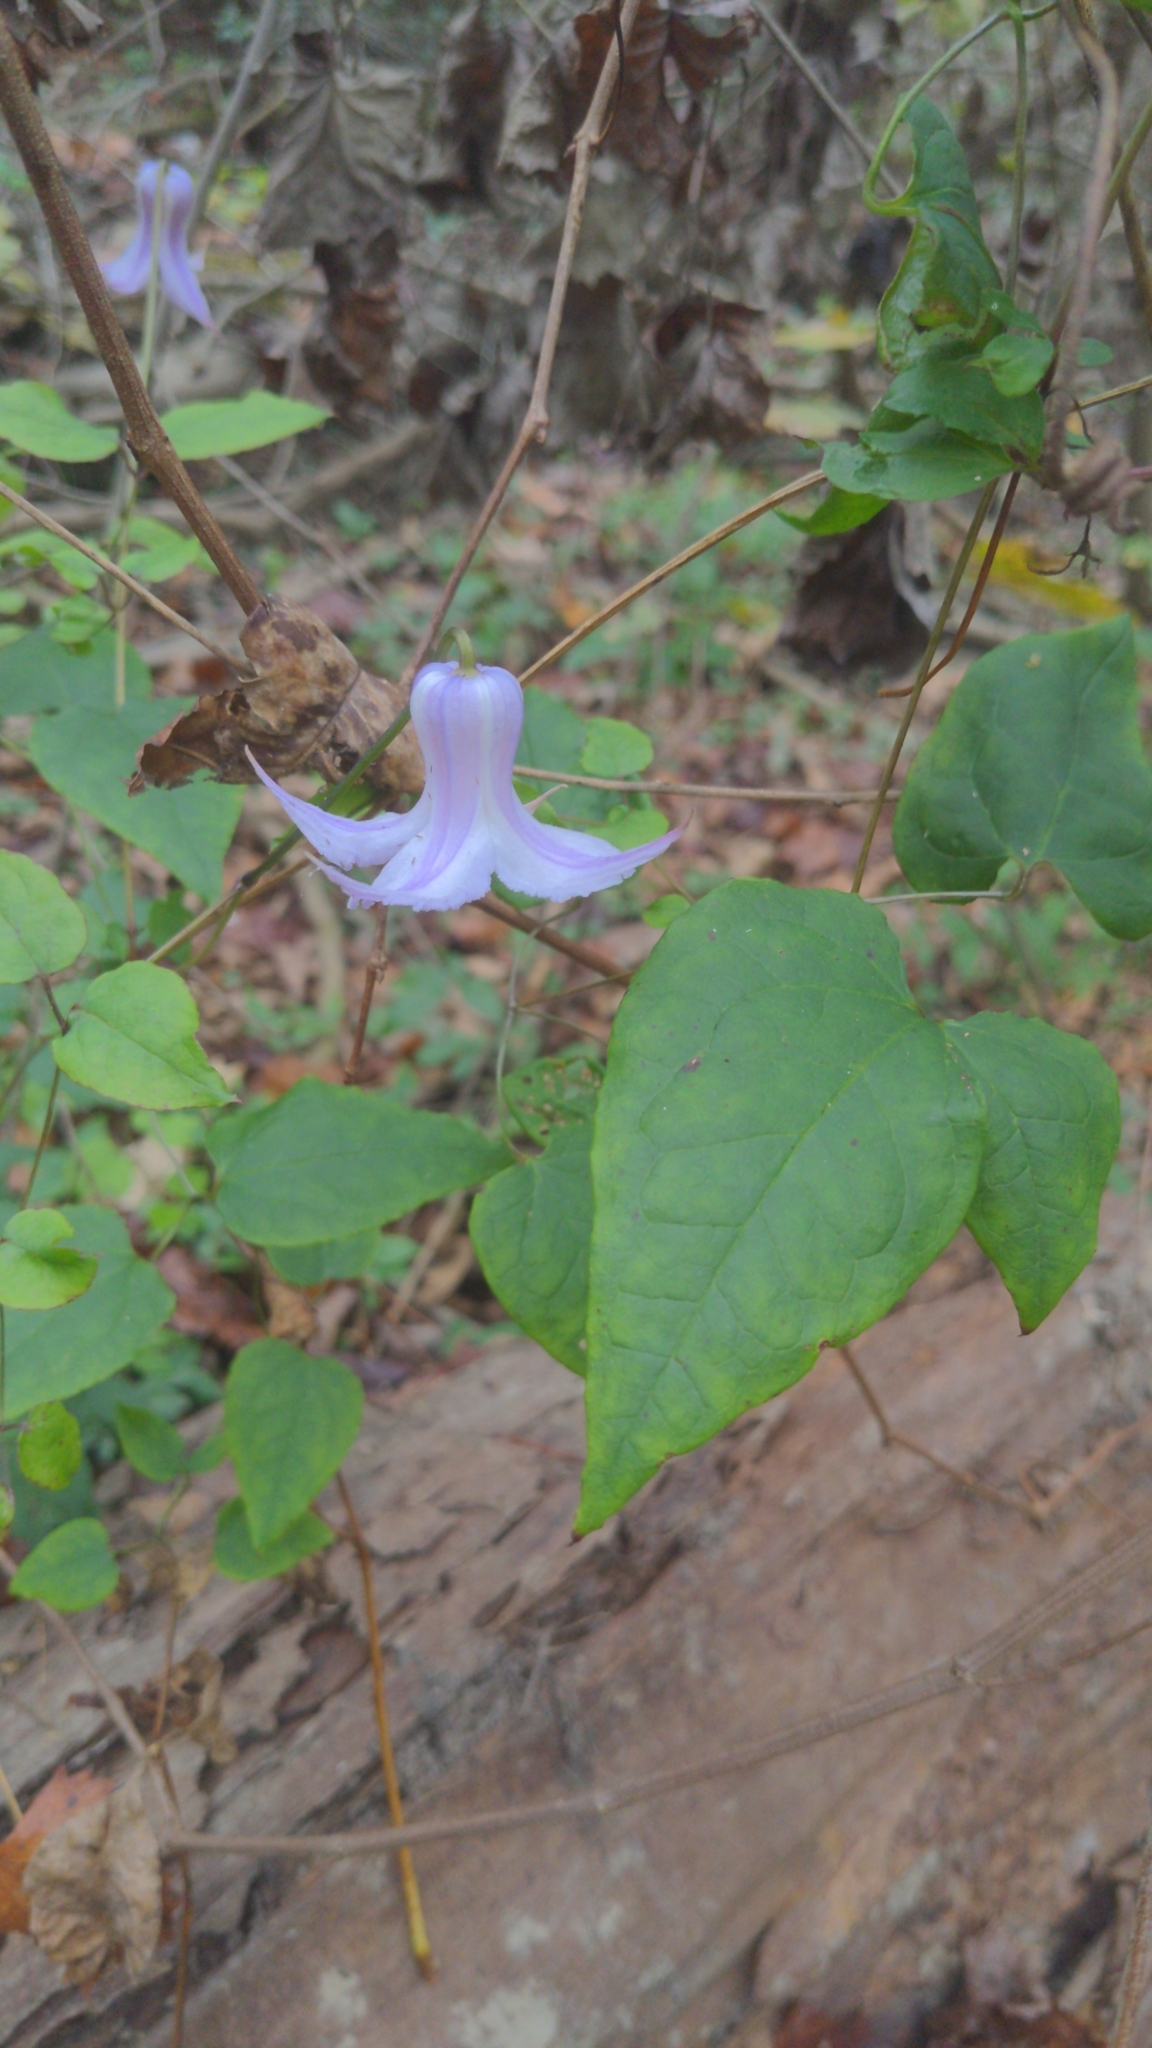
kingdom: Plantae
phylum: Tracheophyta
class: Magnoliopsida
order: Ranunculales
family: Ranunculaceae
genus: Clematis
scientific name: Clematis crispa
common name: Curly clematis
